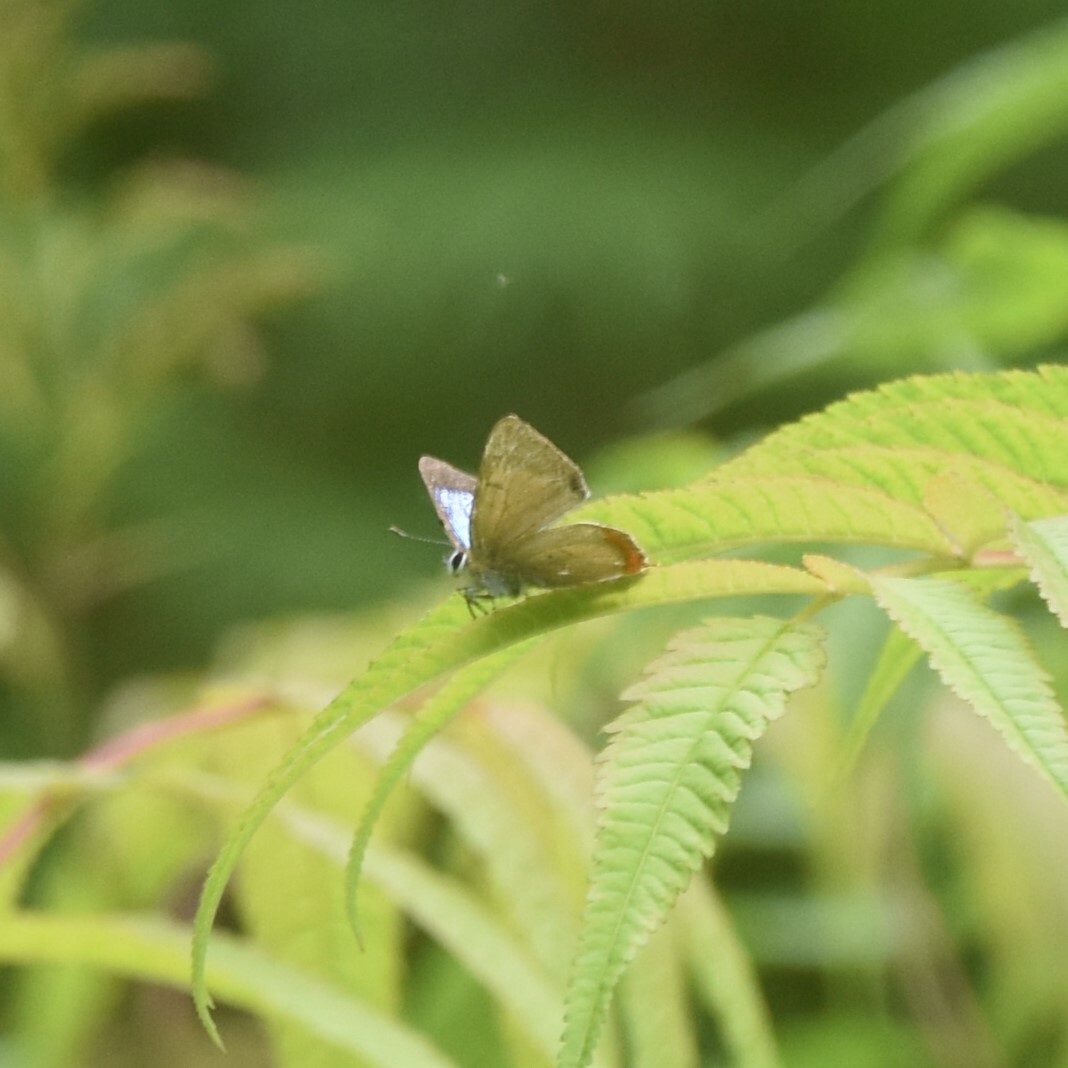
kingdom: Animalia
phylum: Arthropoda
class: Insecta
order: Lepidoptera
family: Lycaenidae
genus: Heliophorus
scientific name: Heliophorus
